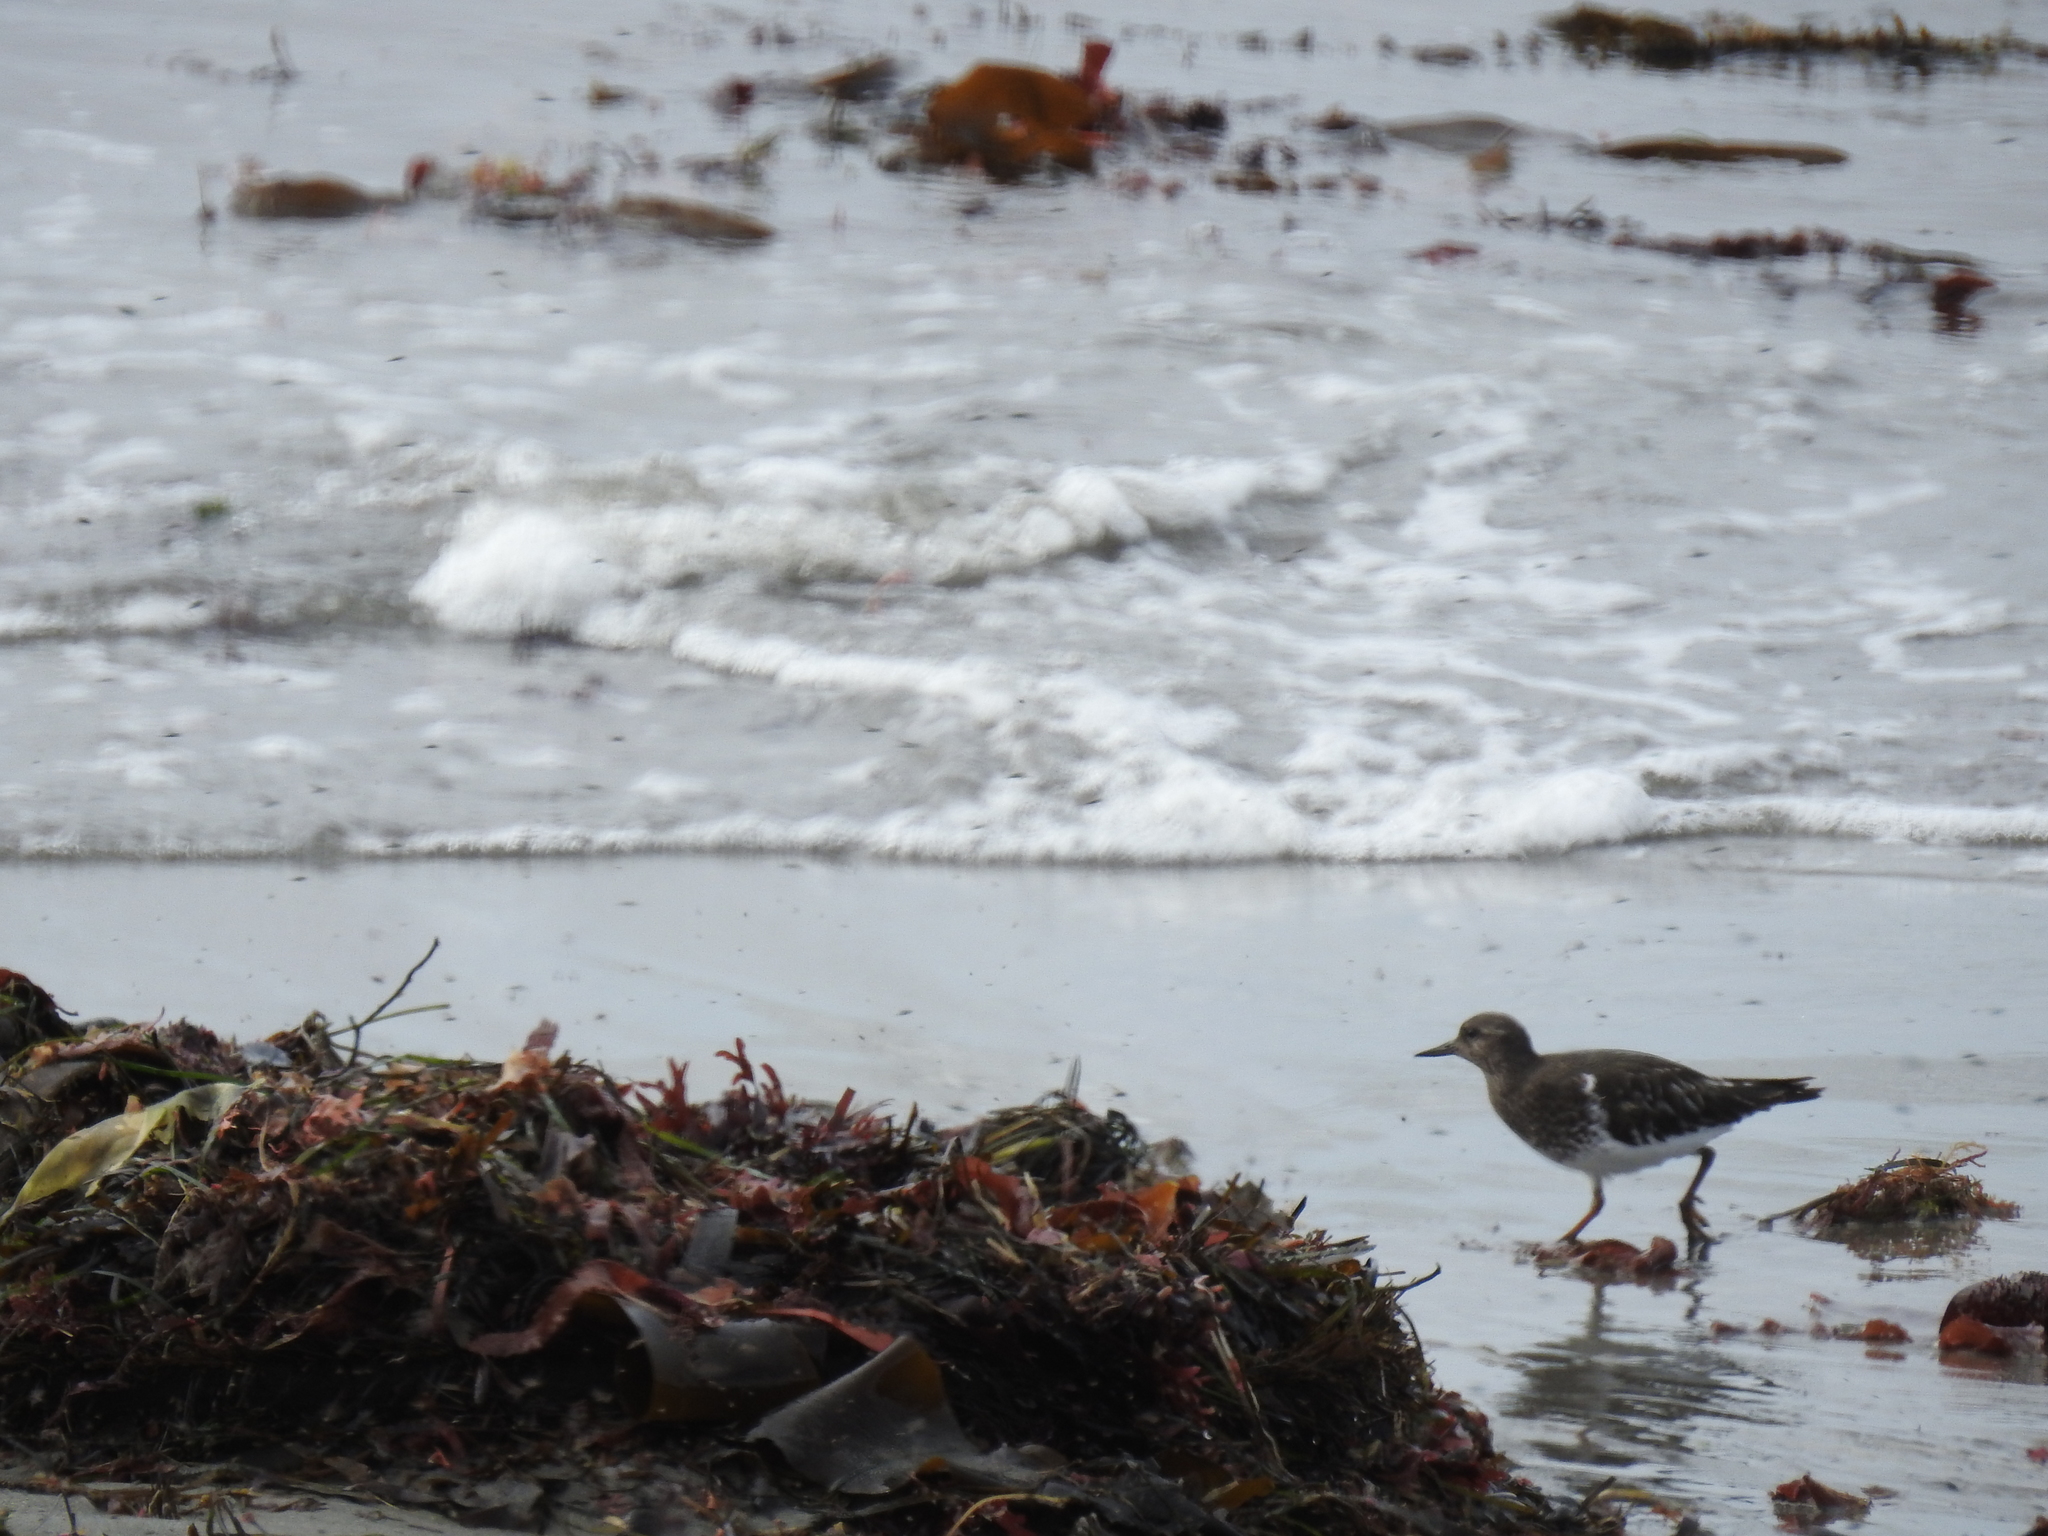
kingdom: Animalia
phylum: Chordata
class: Aves
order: Charadriiformes
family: Scolopacidae
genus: Arenaria
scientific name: Arenaria melanocephala
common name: Black turnstone
